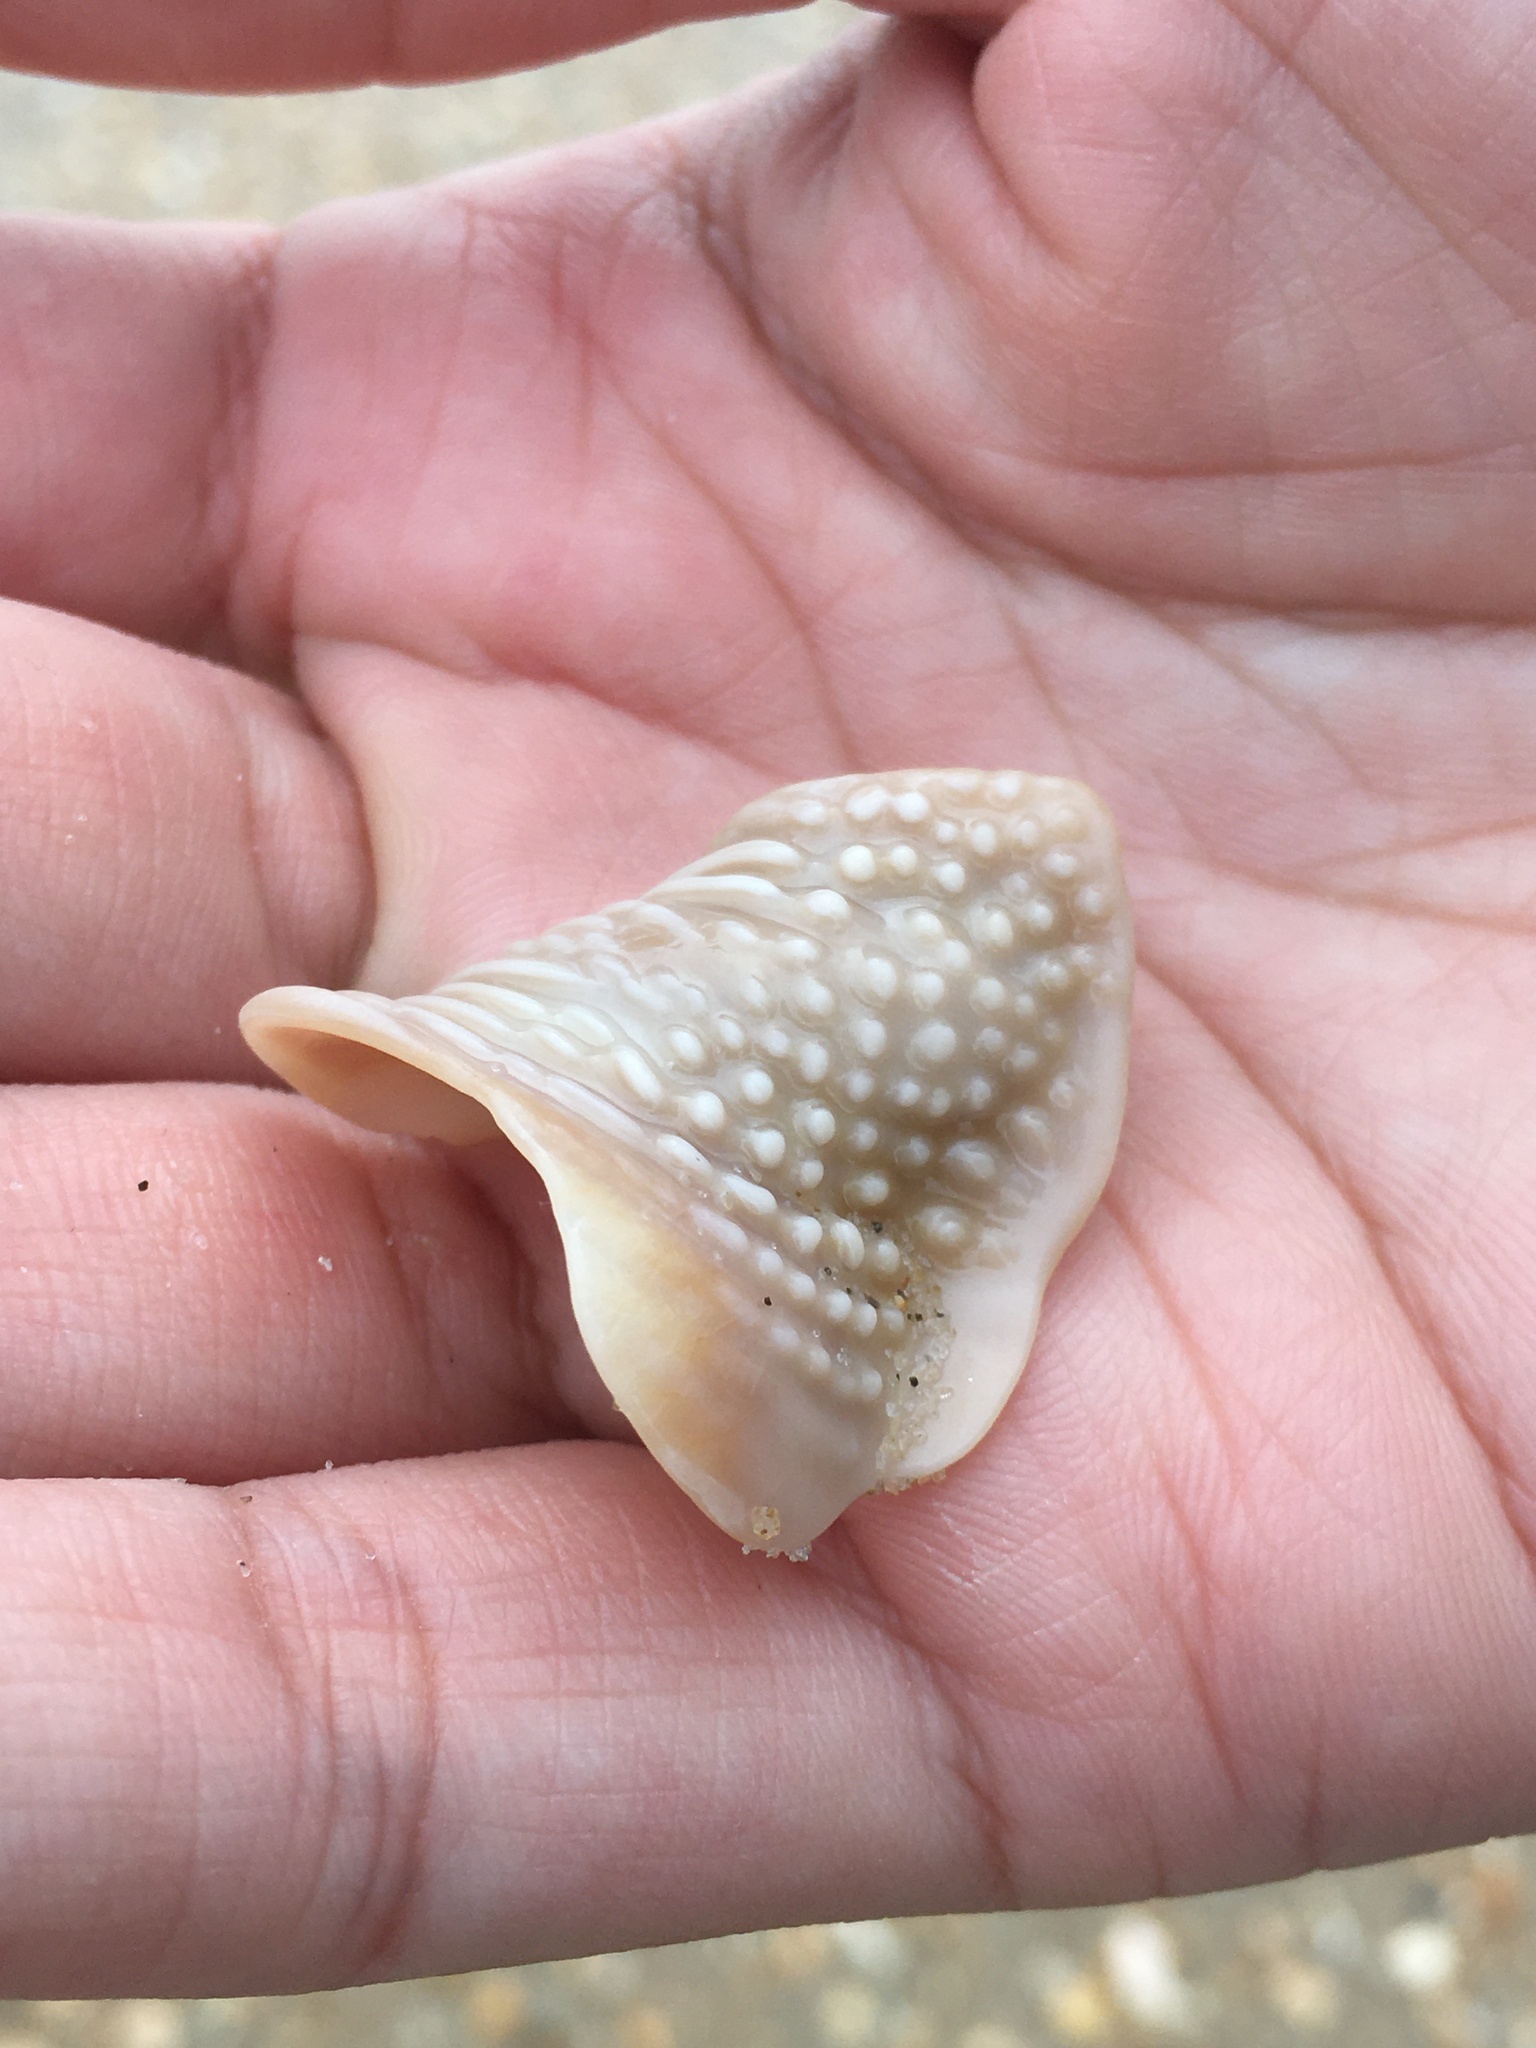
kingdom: Animalia
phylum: Mollusca
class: Gastropoda
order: Littorinimorpha
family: Cassidae
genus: Semicassis
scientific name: Semicassis granulata
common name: Scotch bonnet
